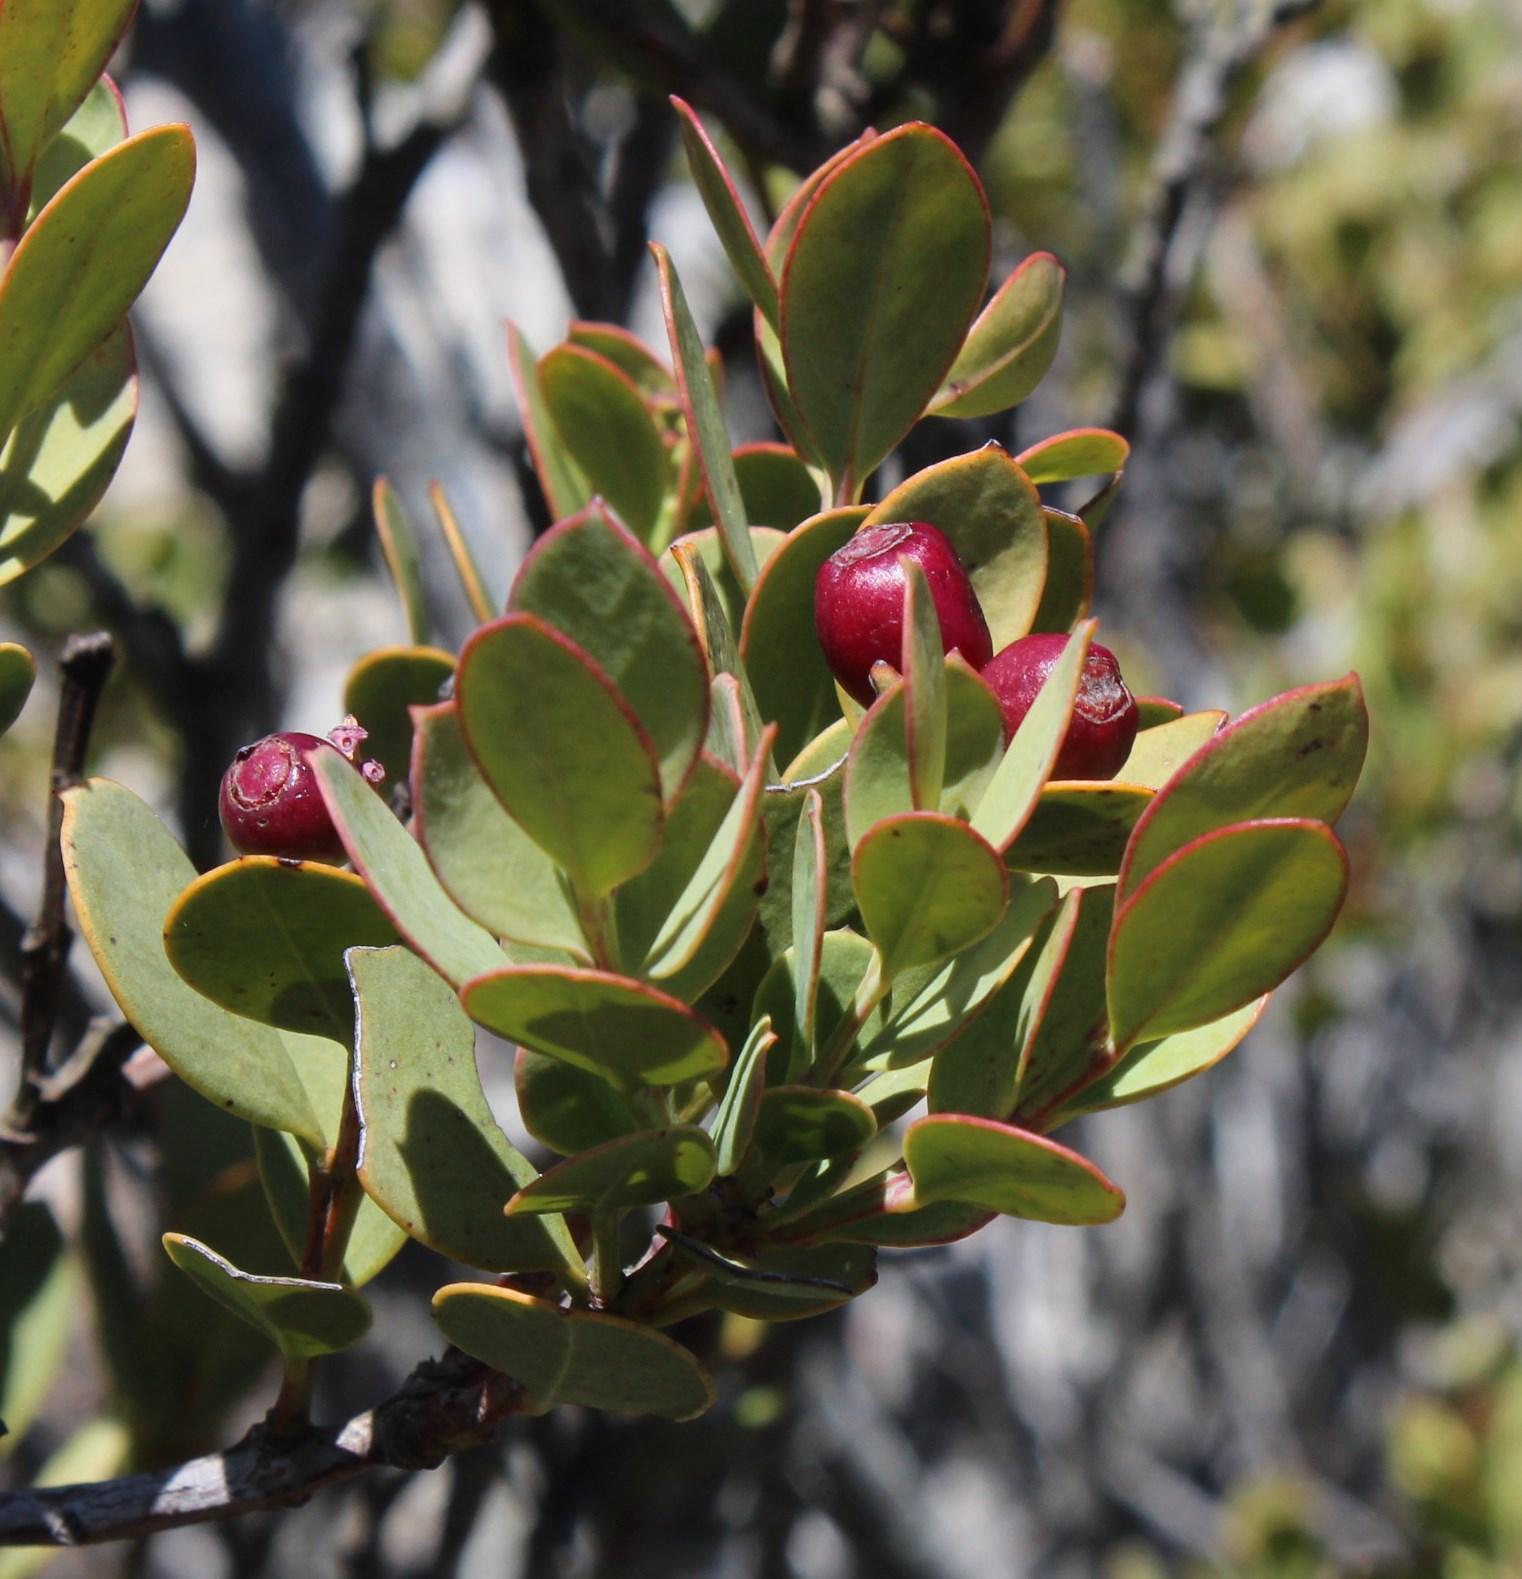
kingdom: Plantae
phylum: Tracheophyta
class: Magnoliopsida
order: Santalales
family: Santalaceae
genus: Osyris
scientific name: Osyris compressa
